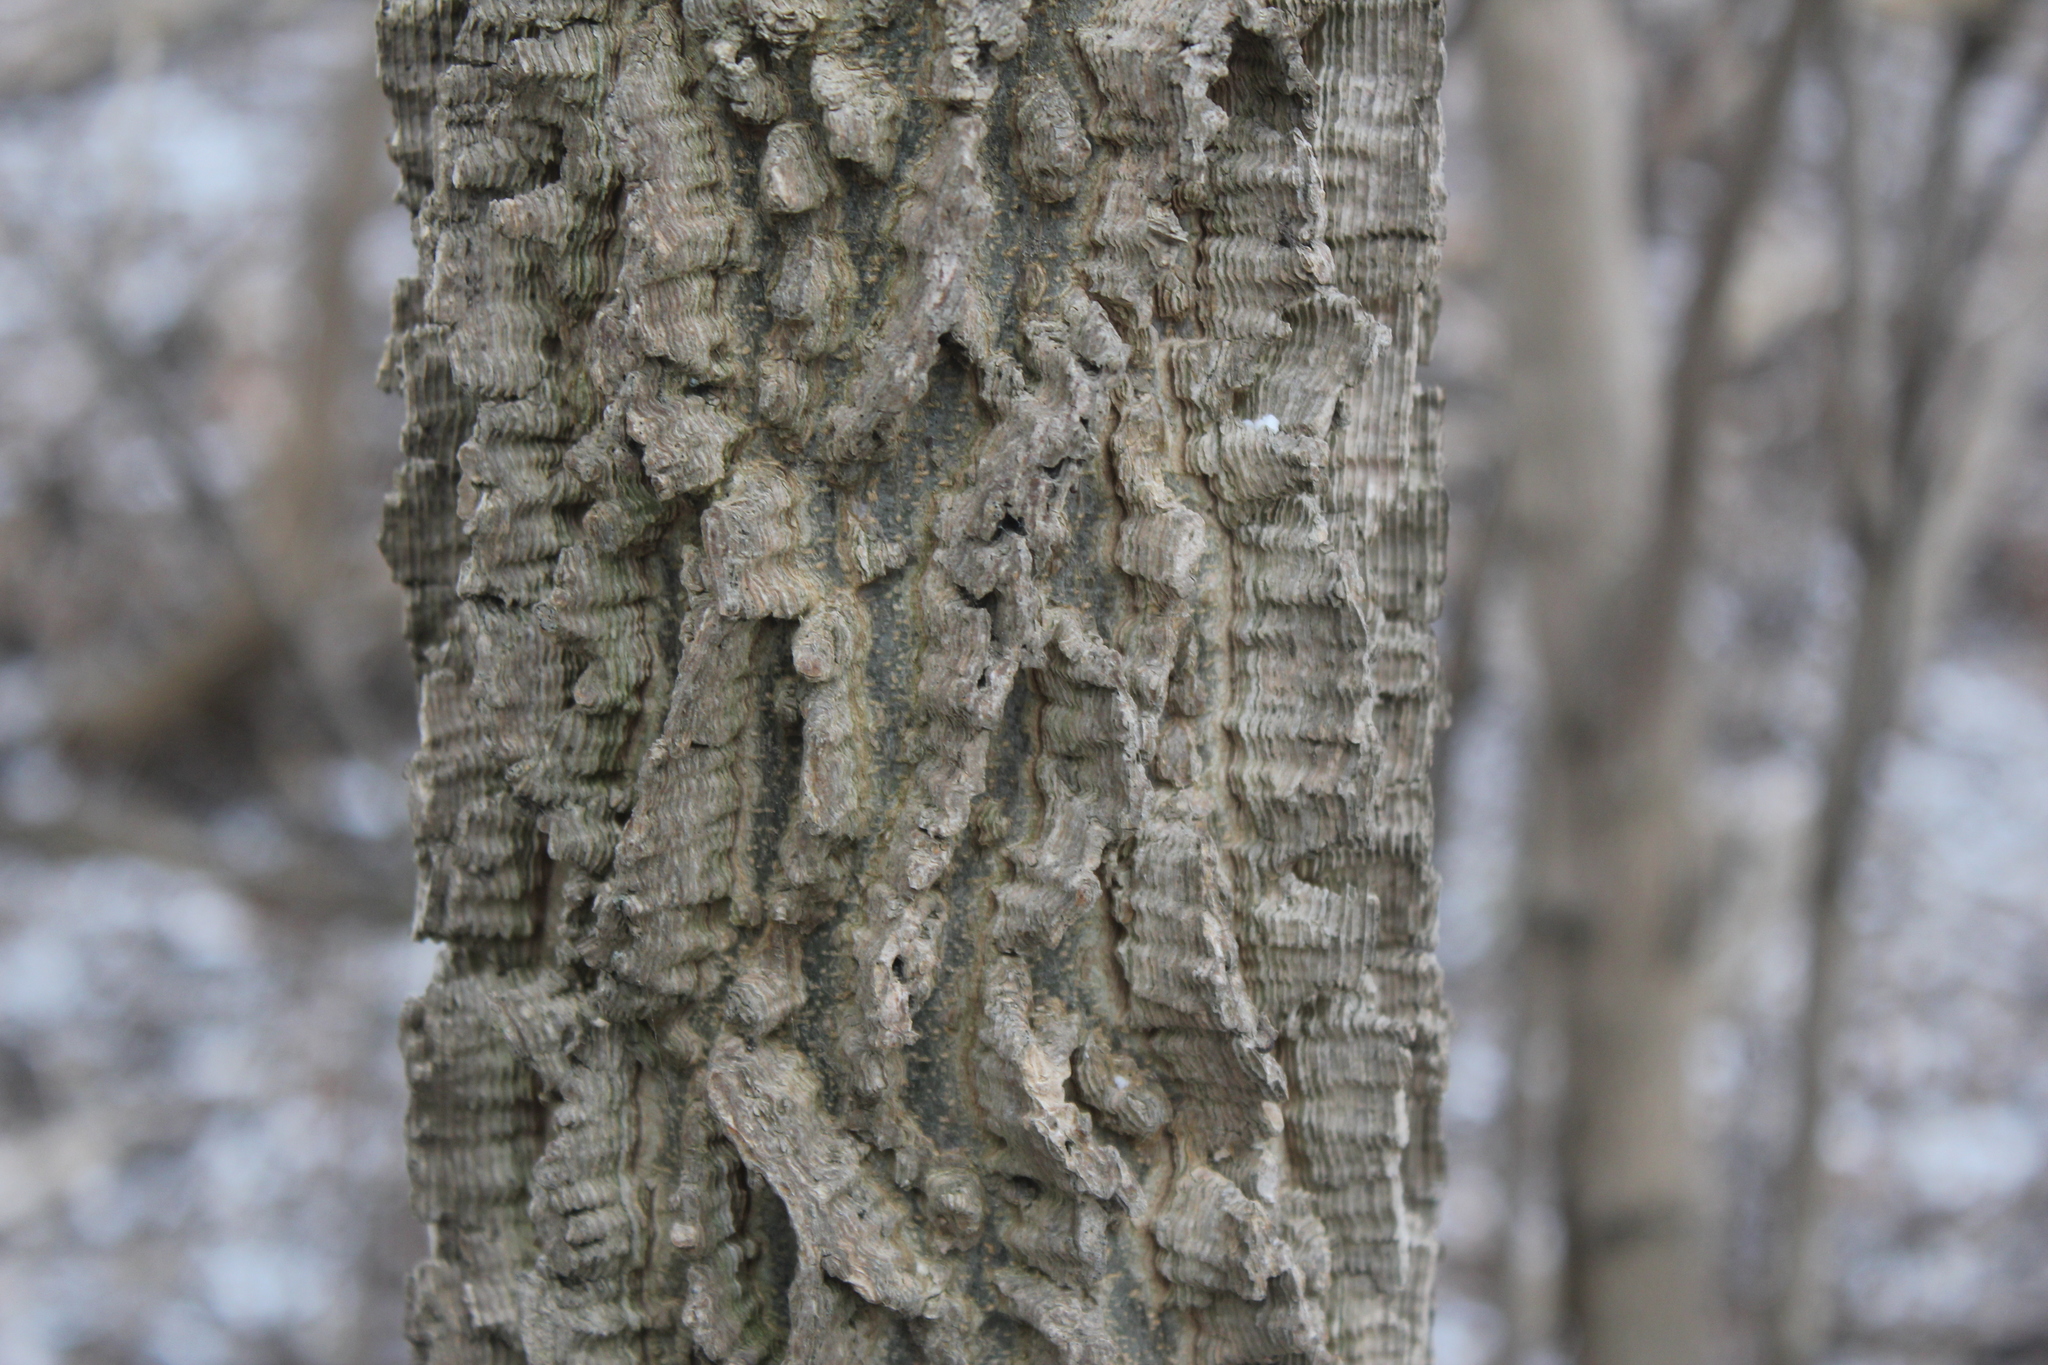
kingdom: Plantae
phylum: Tracheophyta
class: Magnoliopsida
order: Rosales
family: Cannabaceae
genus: Celtis
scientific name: Celtis occidentalis
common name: Common hackberry
